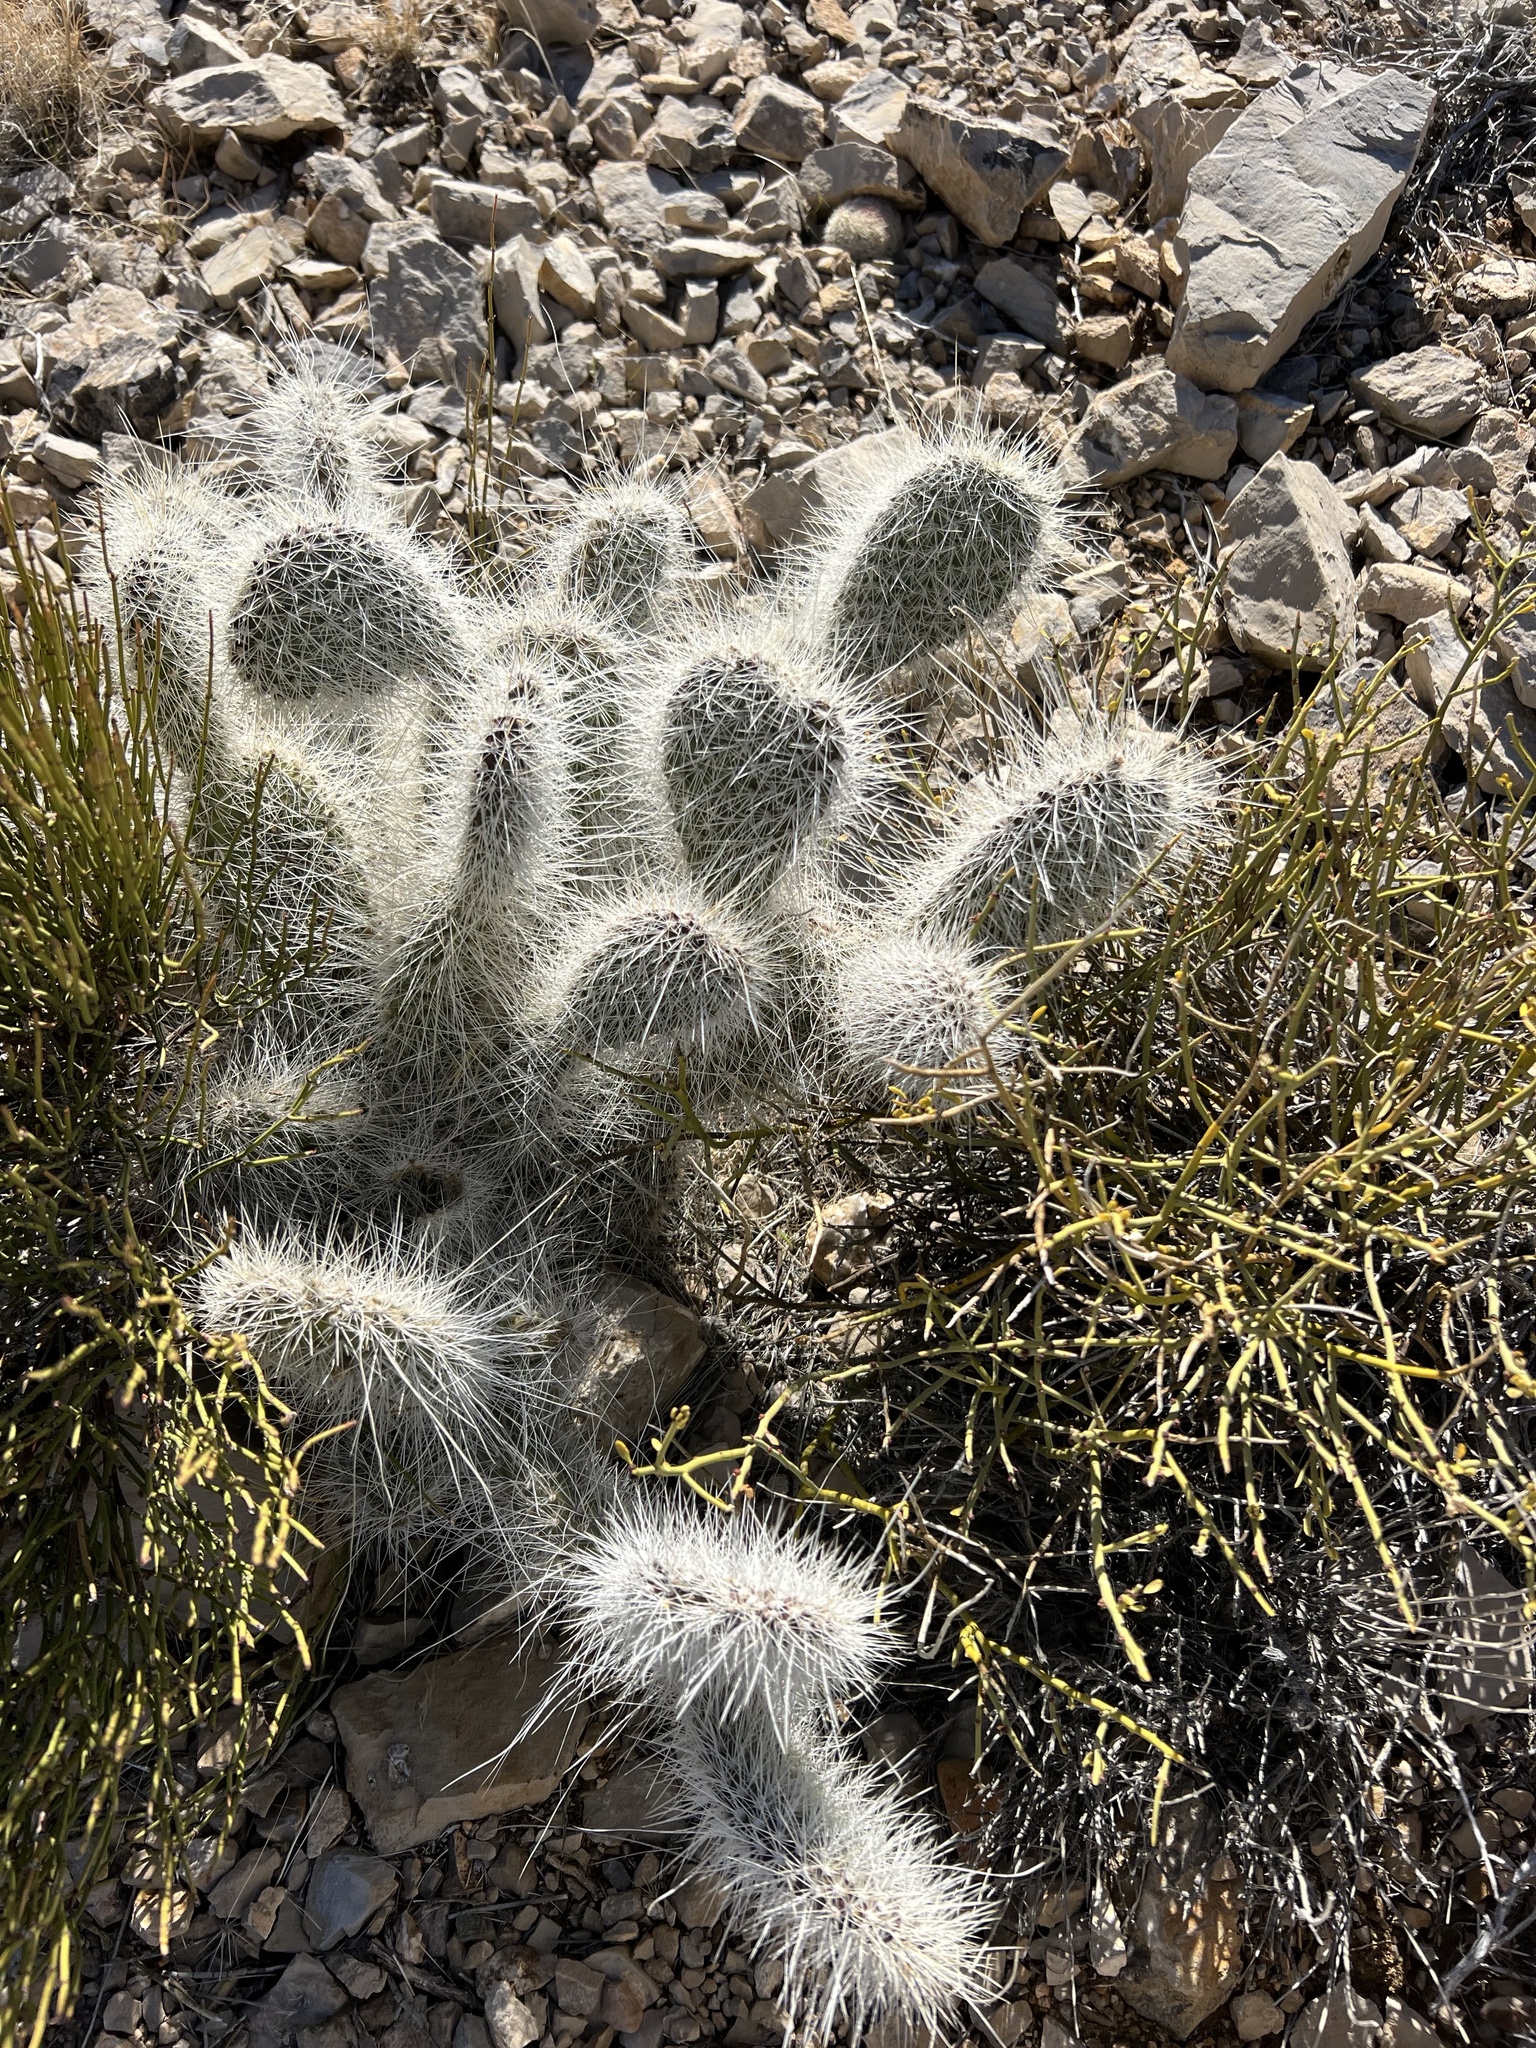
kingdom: Plantae
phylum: Tracheophyta
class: Magnoliopsida
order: Caryophyllales
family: Cactaceae
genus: Opuntia
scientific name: Opuntia polyacantha
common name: Plains prickly-pear
